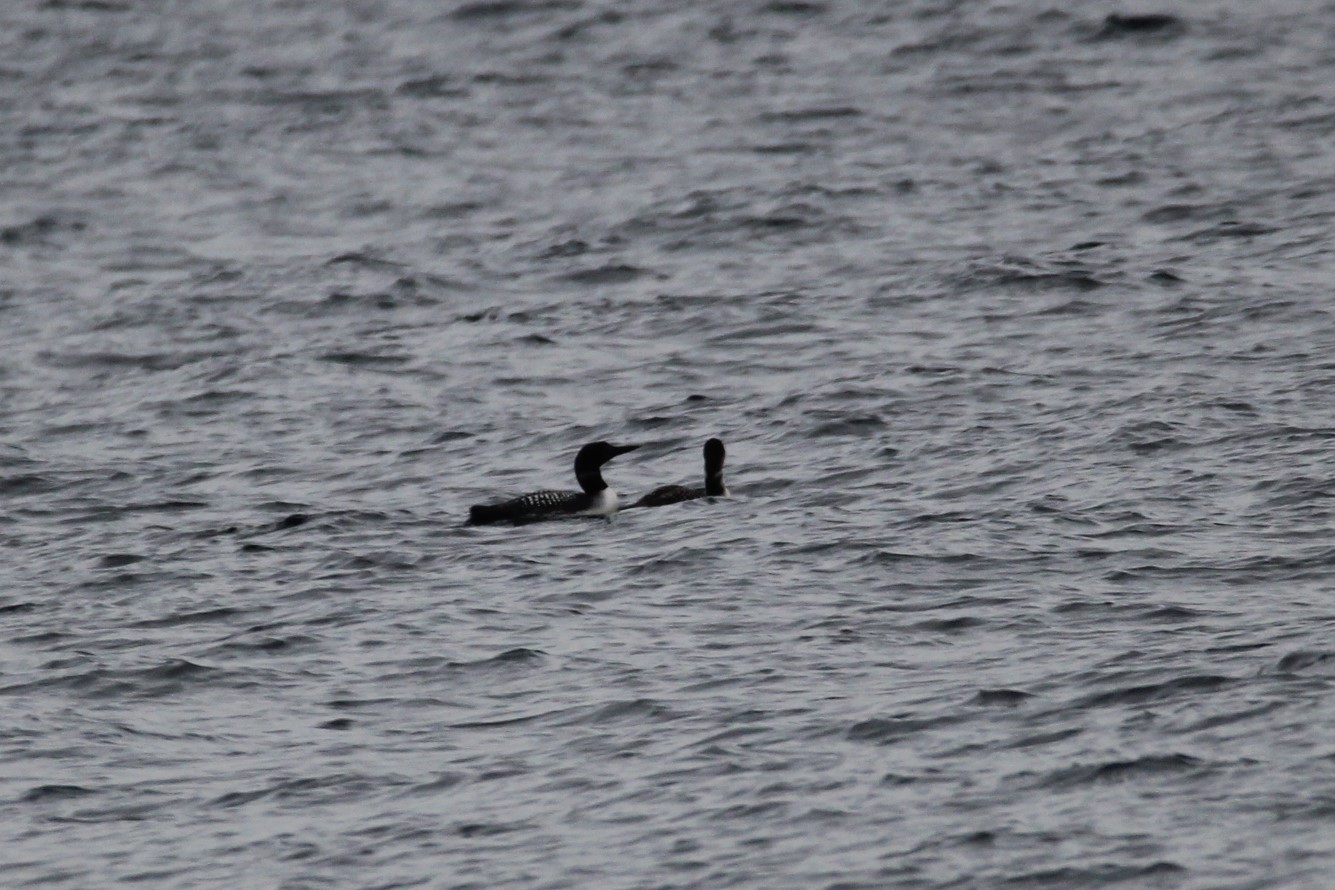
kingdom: Animalia
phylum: Chordata
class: Aves
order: Gaviiformes
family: Gaviidae
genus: Gavia
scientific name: Gavia immer
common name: Common loon
